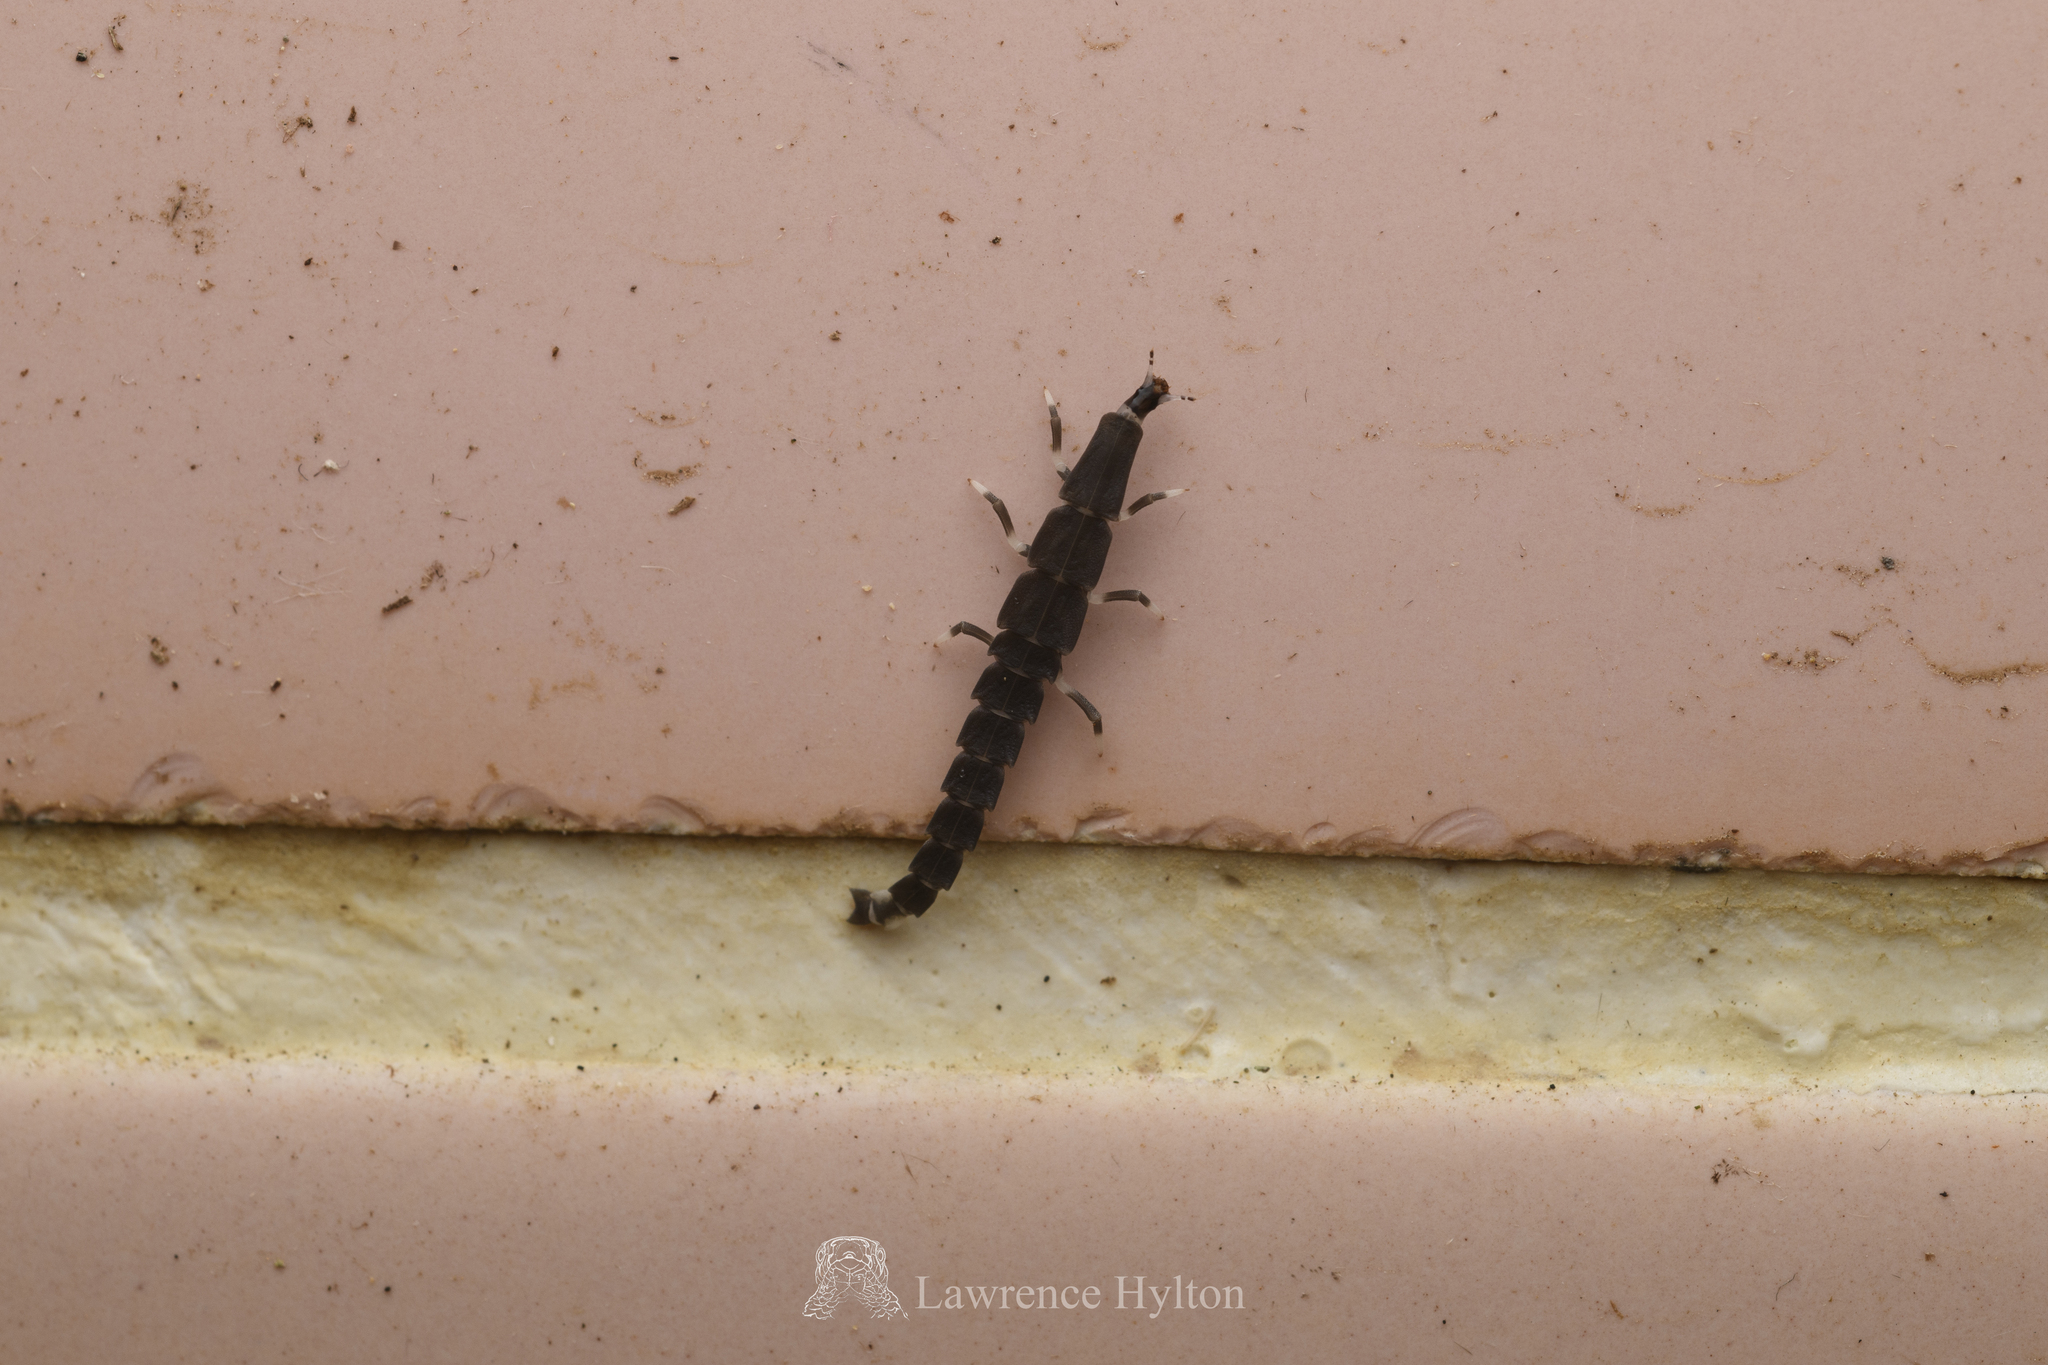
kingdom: Animalia
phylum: Arthropoda
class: Insecta
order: Coleoptera
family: Lampyridae
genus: Pyrocoelia
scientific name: Pyrocoelia lunata
